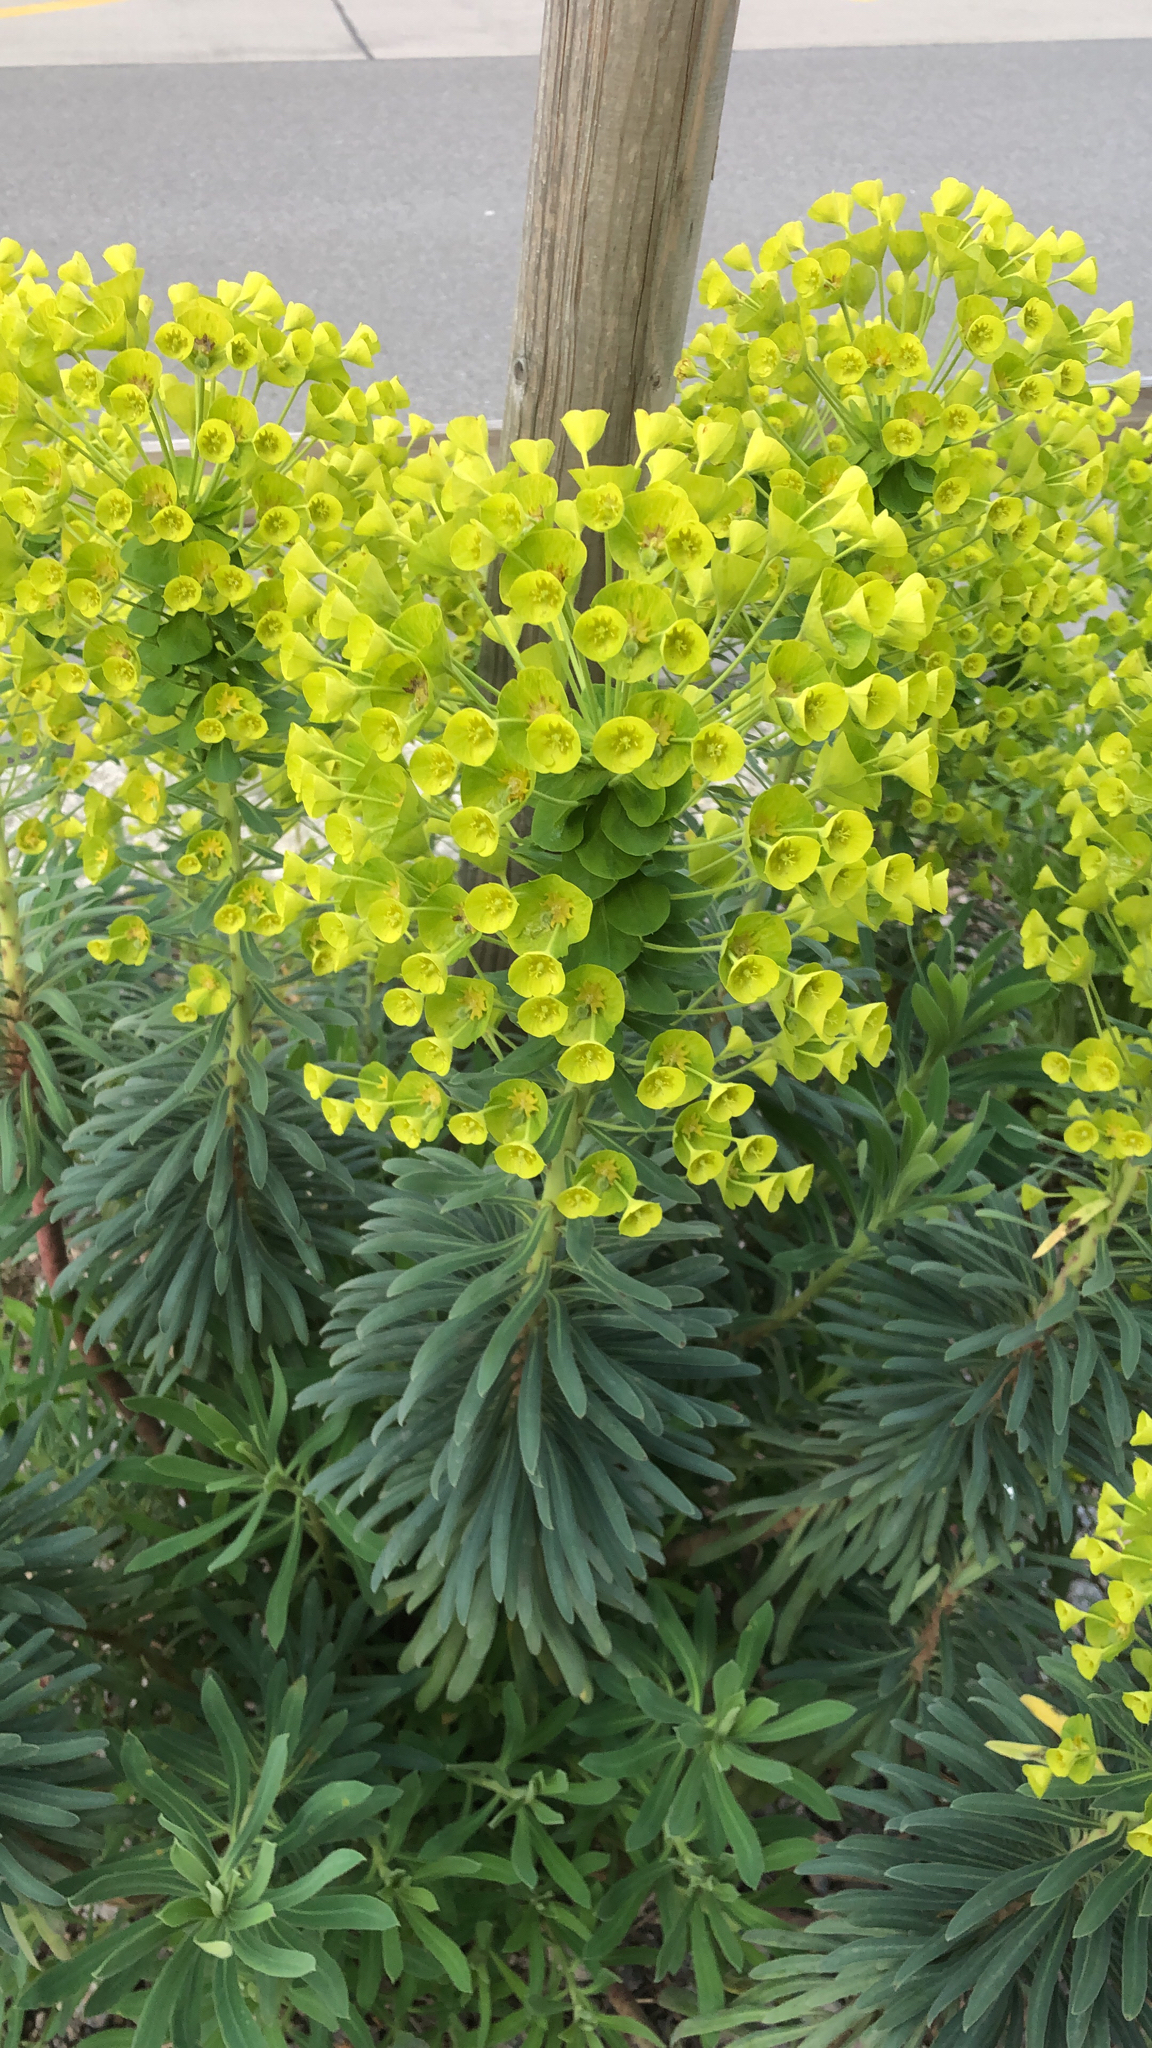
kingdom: Plantae
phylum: Tracheophyta
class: Magnoliopsida
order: Malpighiales
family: Euphorbiaceae
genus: Euphorbia
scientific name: Euphorbia characias
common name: Mediterranean spurge
